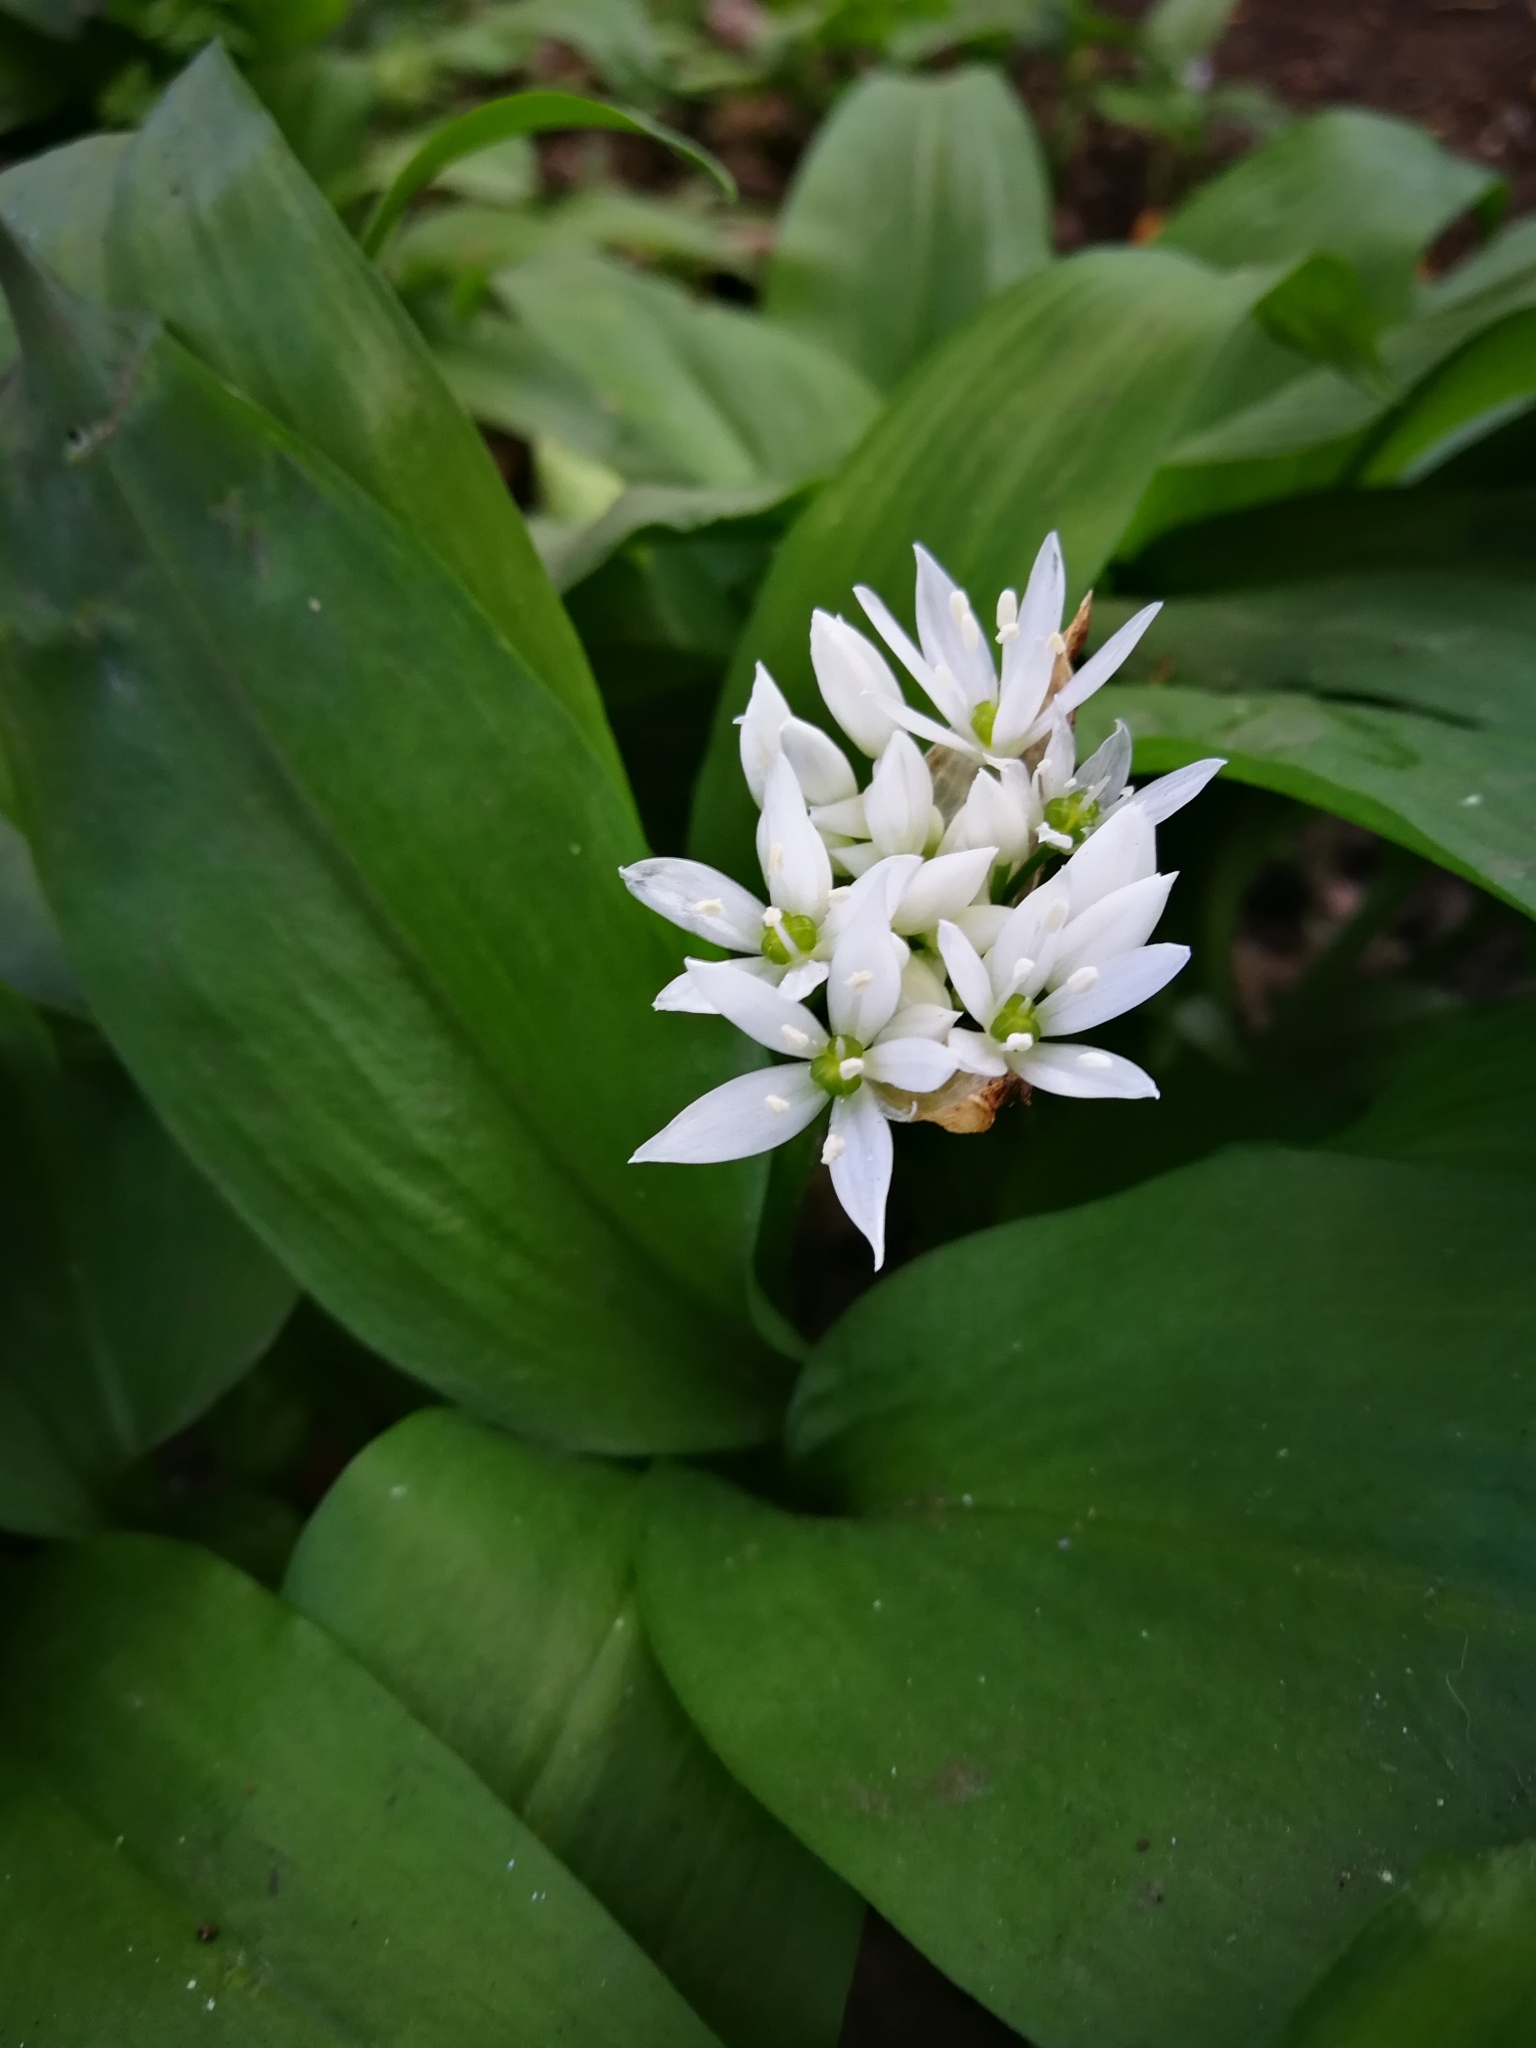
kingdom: Plantae
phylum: Tracheophyta
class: Liliopsida
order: Asparagales
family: Amaryllidaceae
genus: Allium
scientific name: Allium ursinum
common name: Ramsons
